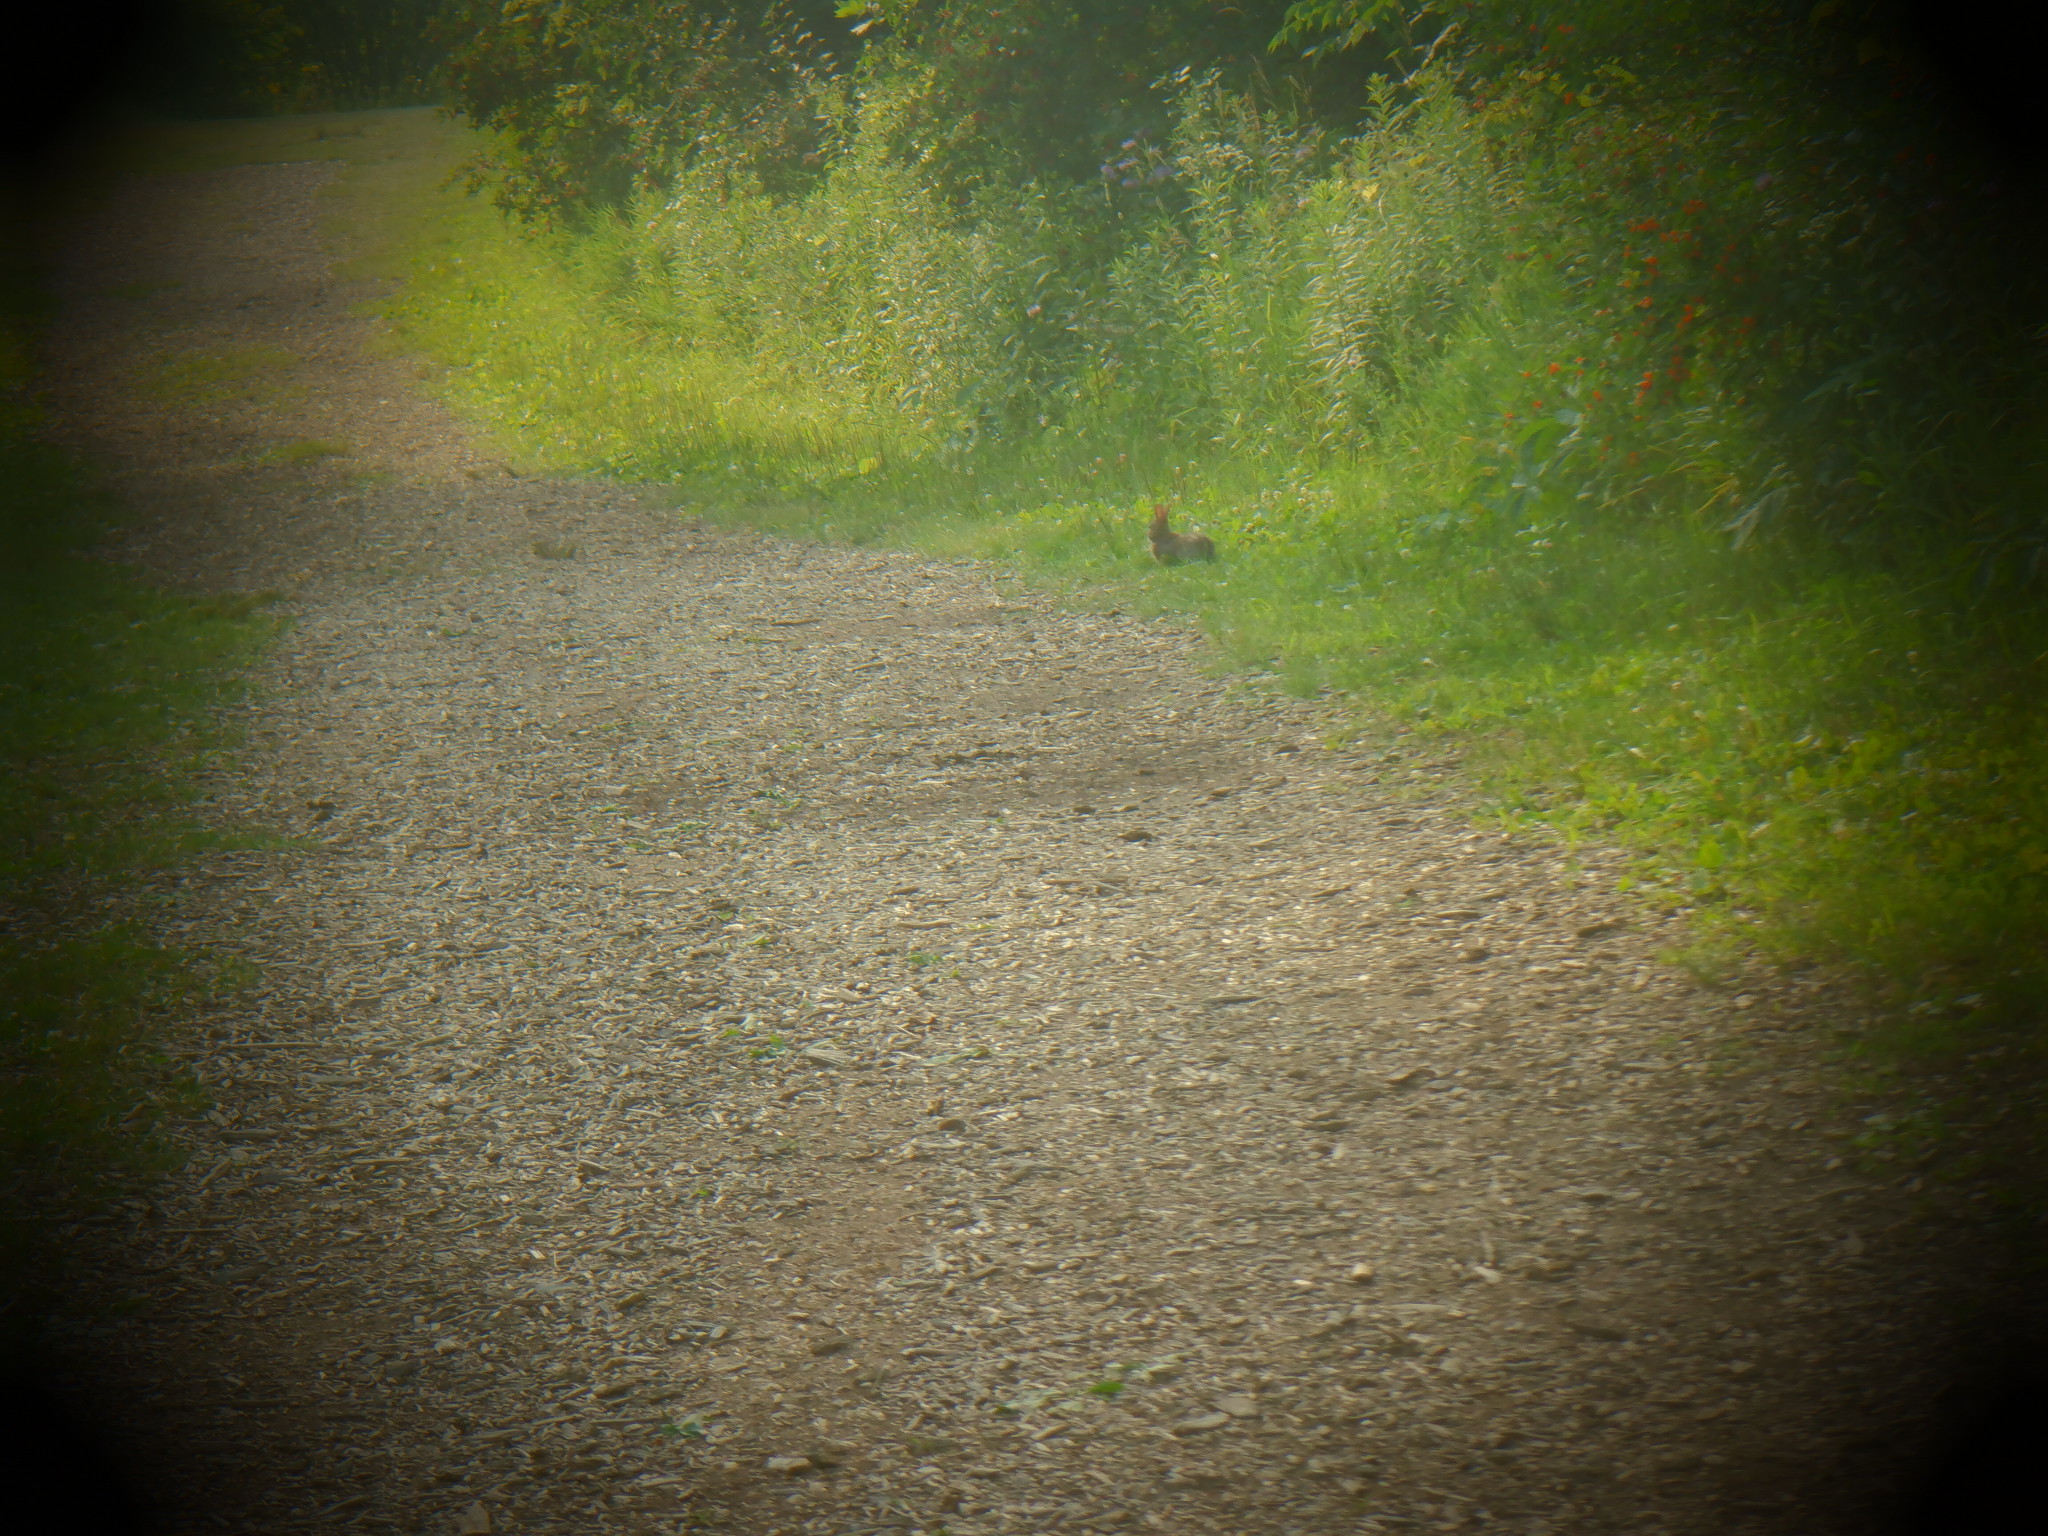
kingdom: Animalia
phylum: Chordata
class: Mammalia
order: Lagomorpha
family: Leporidae
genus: Sylvilagus
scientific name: Sylvilagus floridanus
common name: Eastern cottontail
